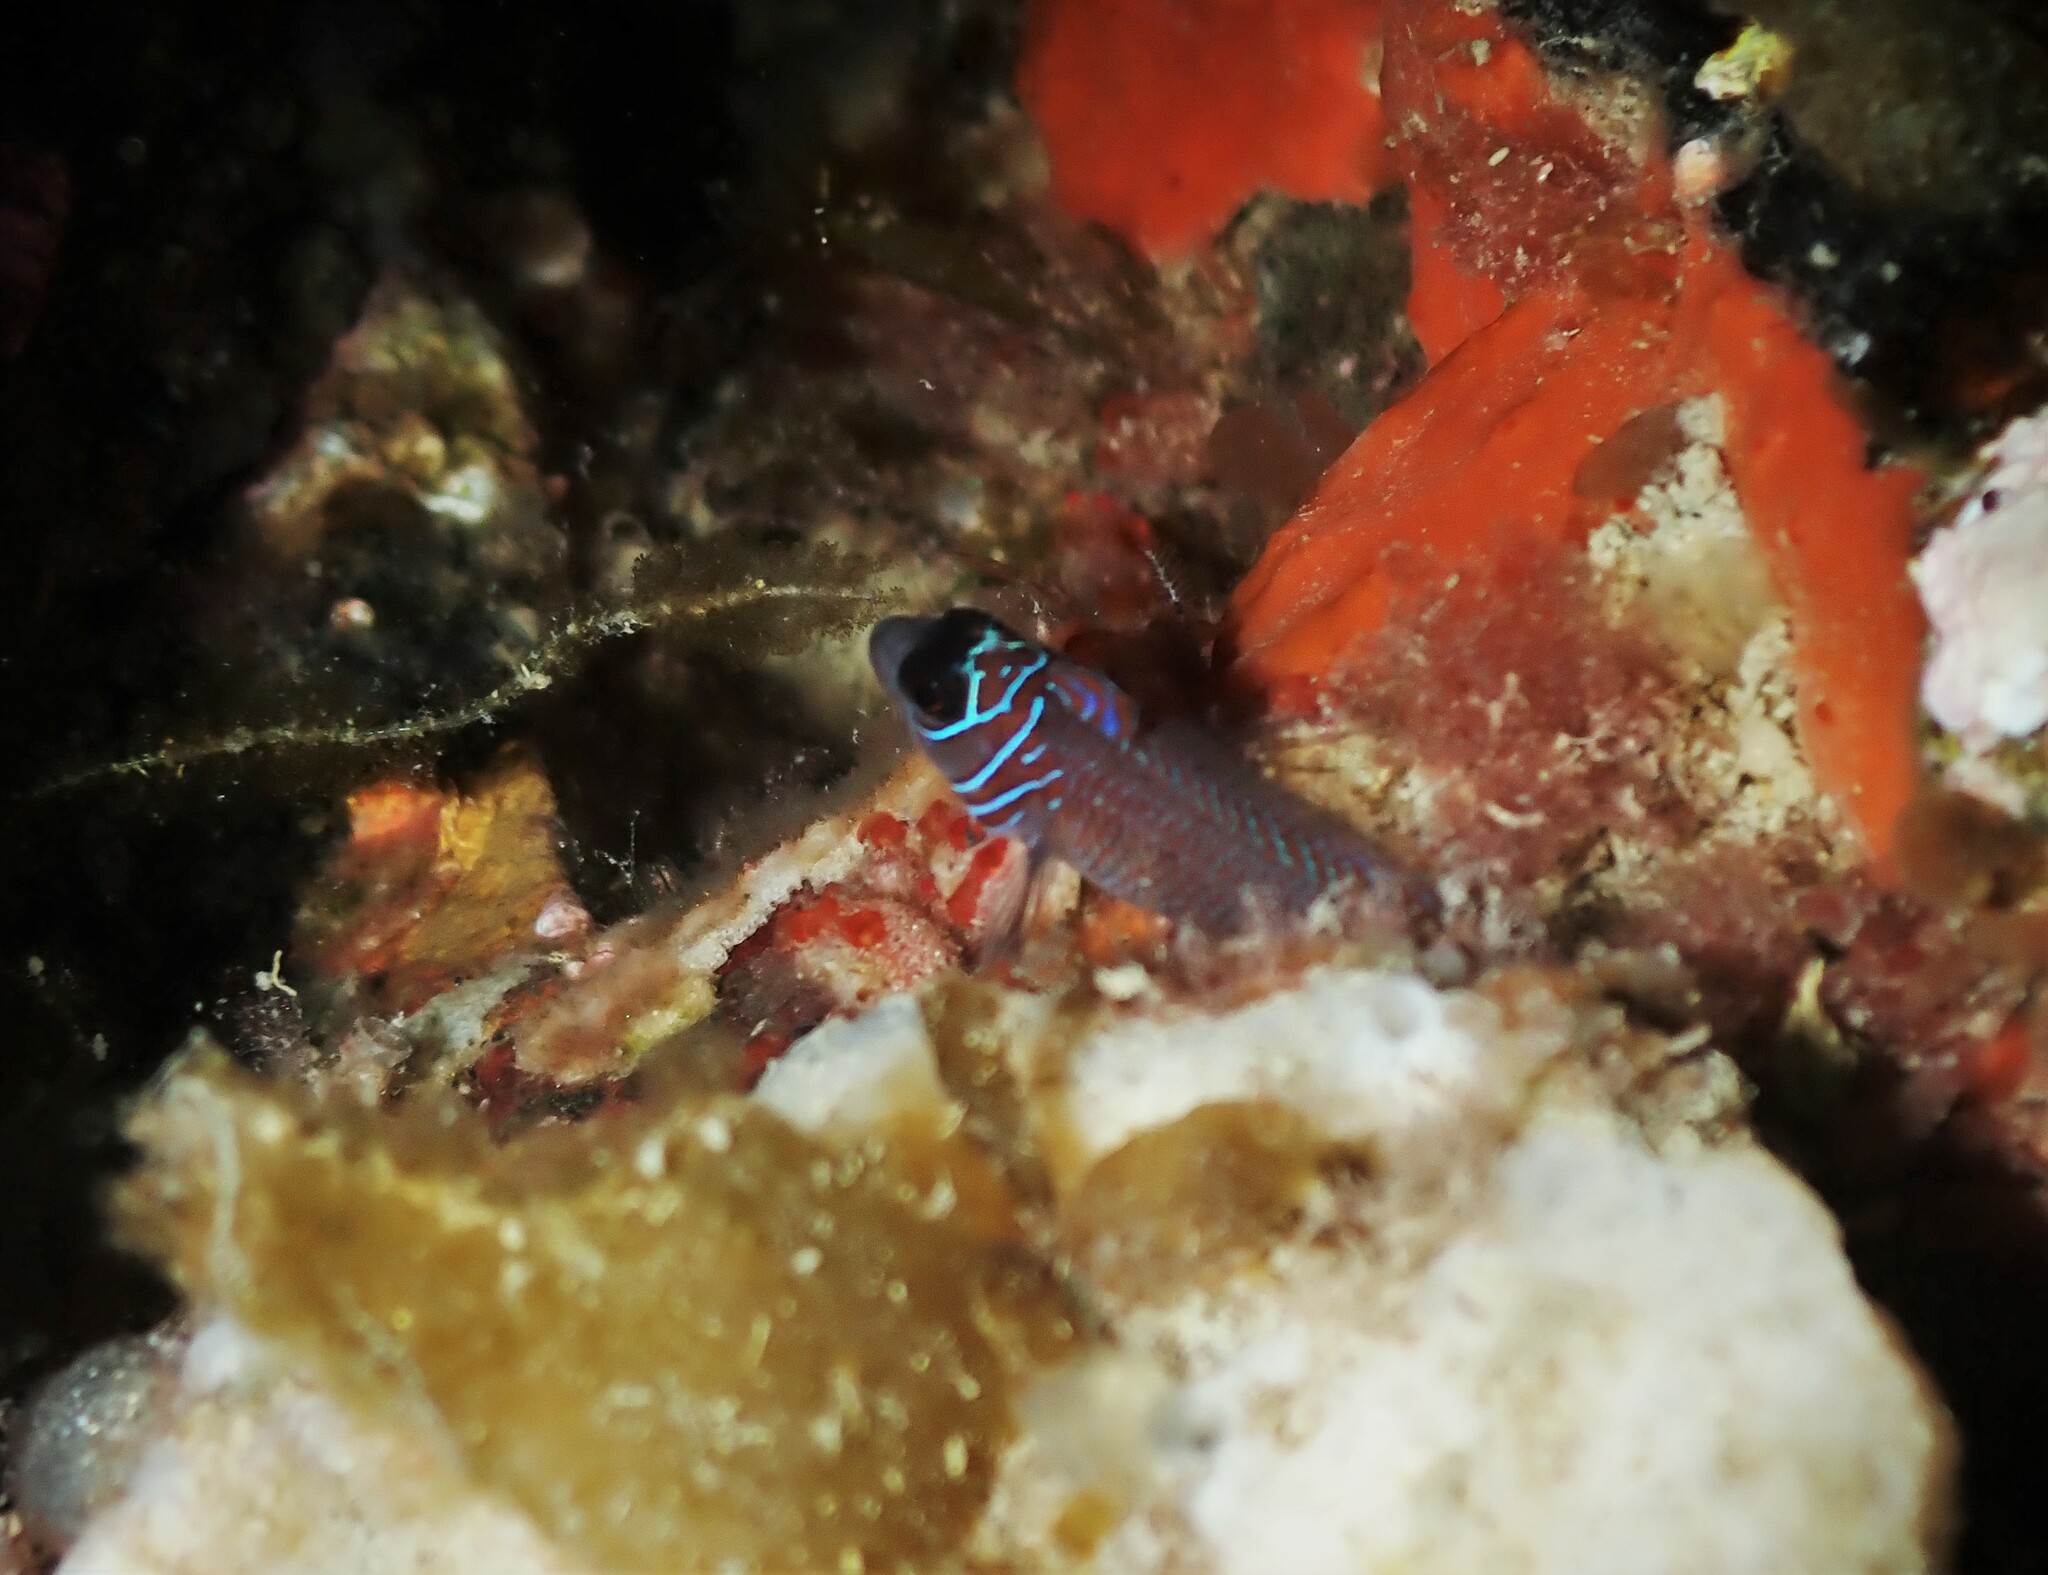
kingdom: Animalia
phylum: Chordata
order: Perciformes
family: Tripterygiidae
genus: Ruanoho
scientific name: Ruanoho whero
